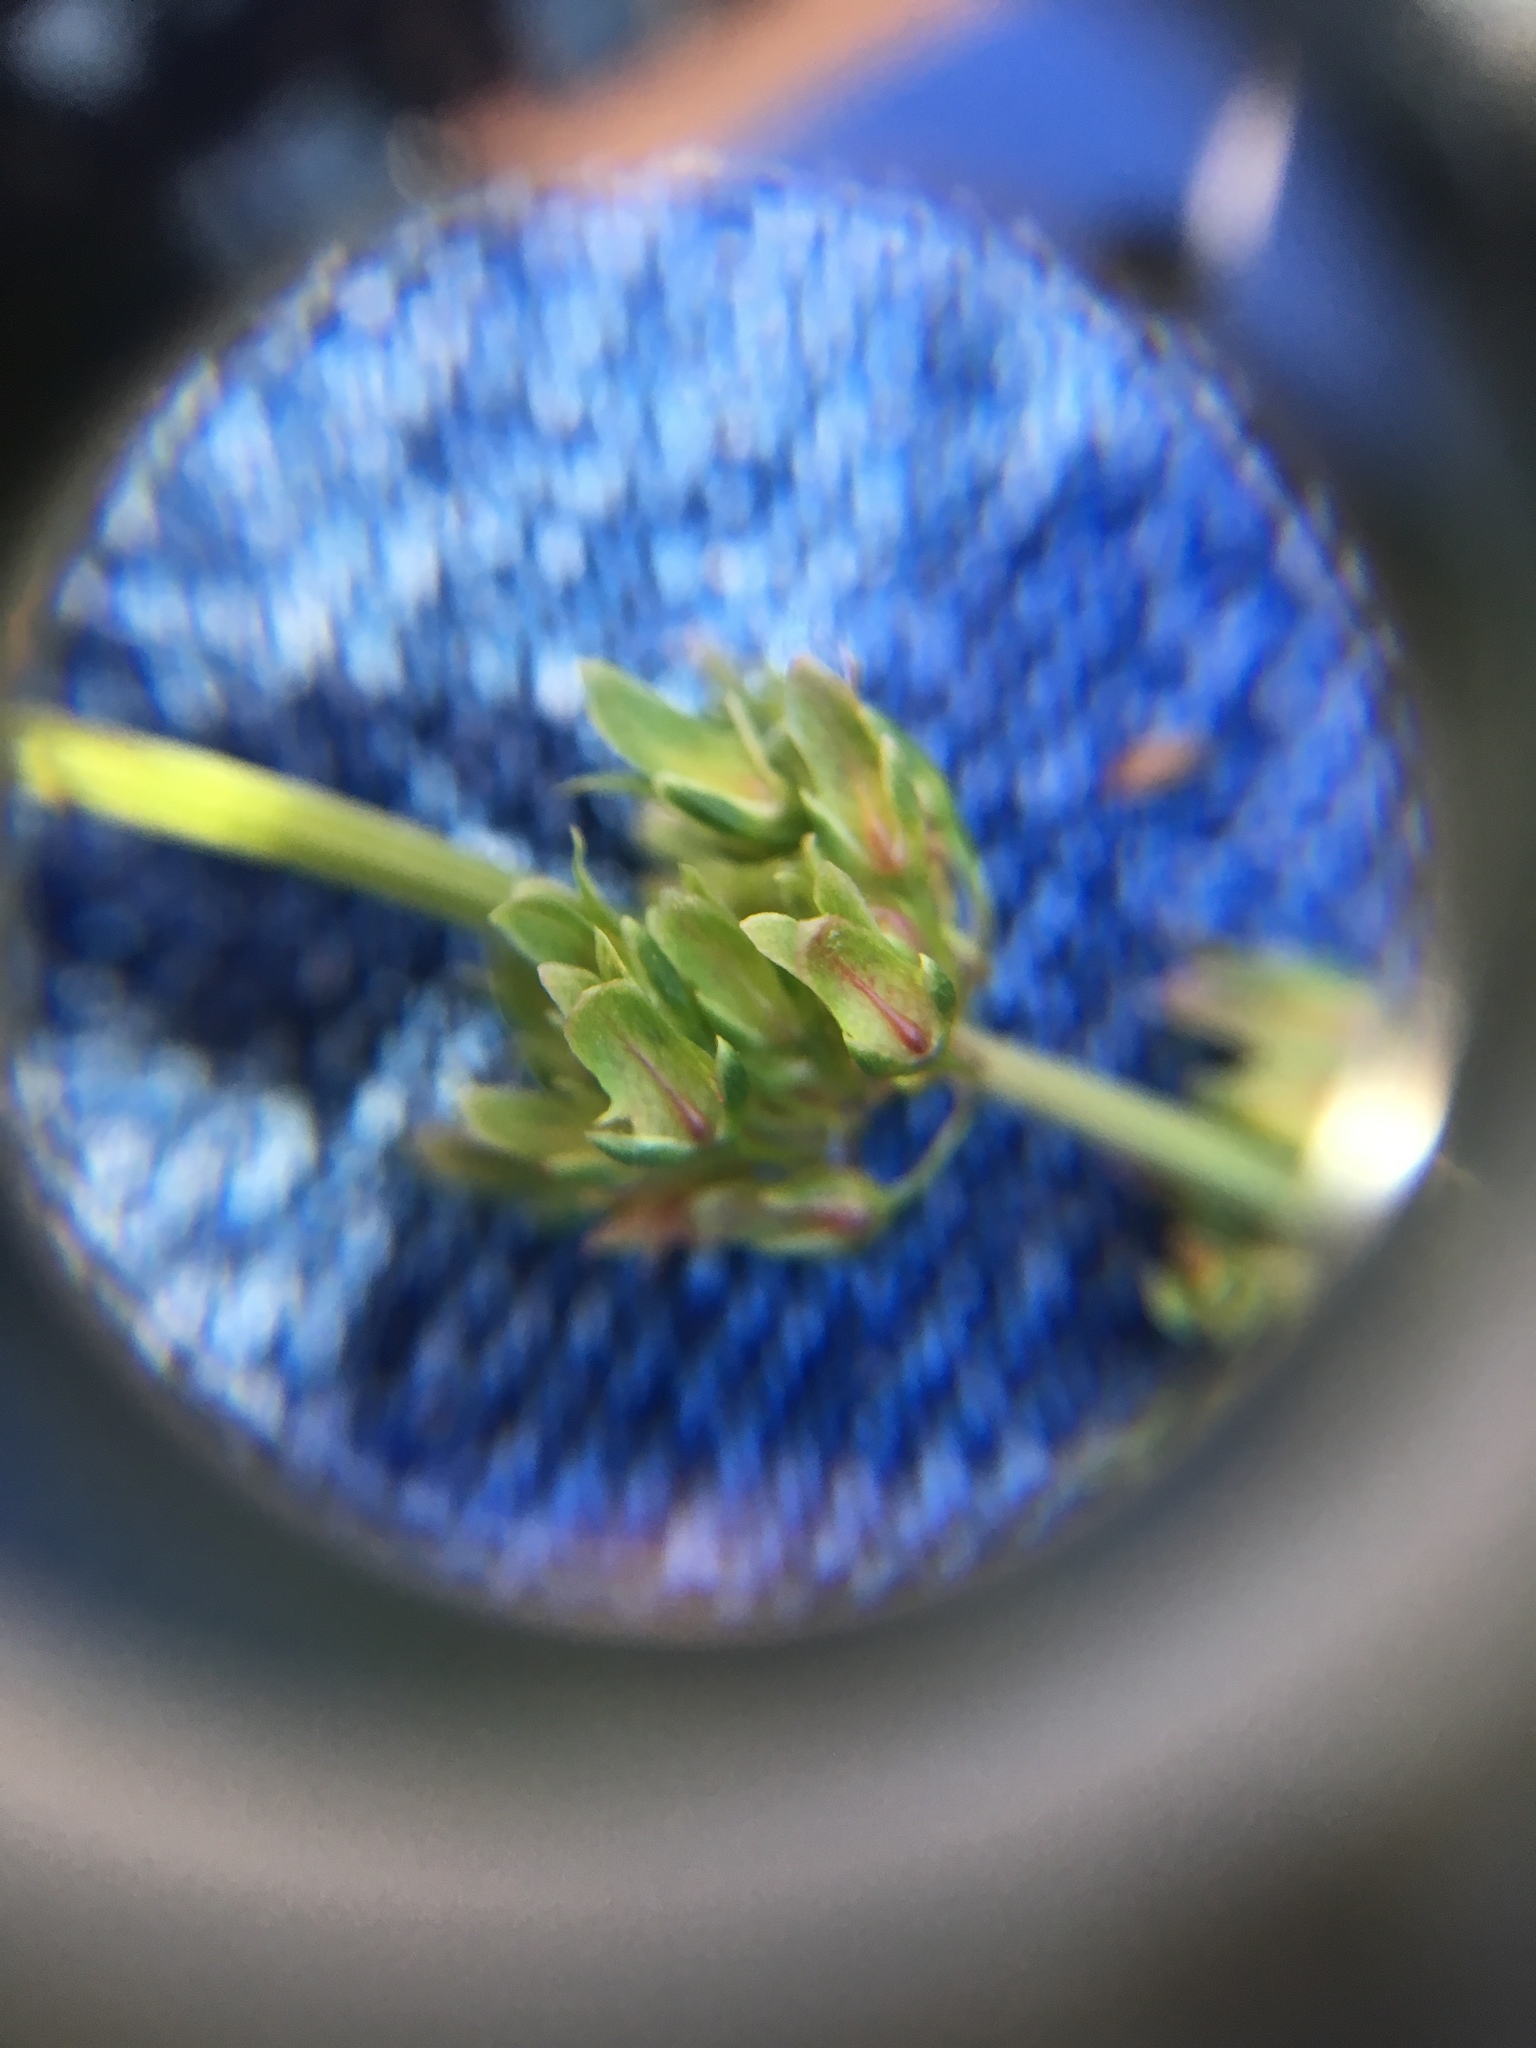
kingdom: Plantae
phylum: Tracheophyta
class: Magnoliopsida
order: Caryophyllales
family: Polygonaceae
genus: Rumex
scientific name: Rumex obtusifolius
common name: Bitter dock
